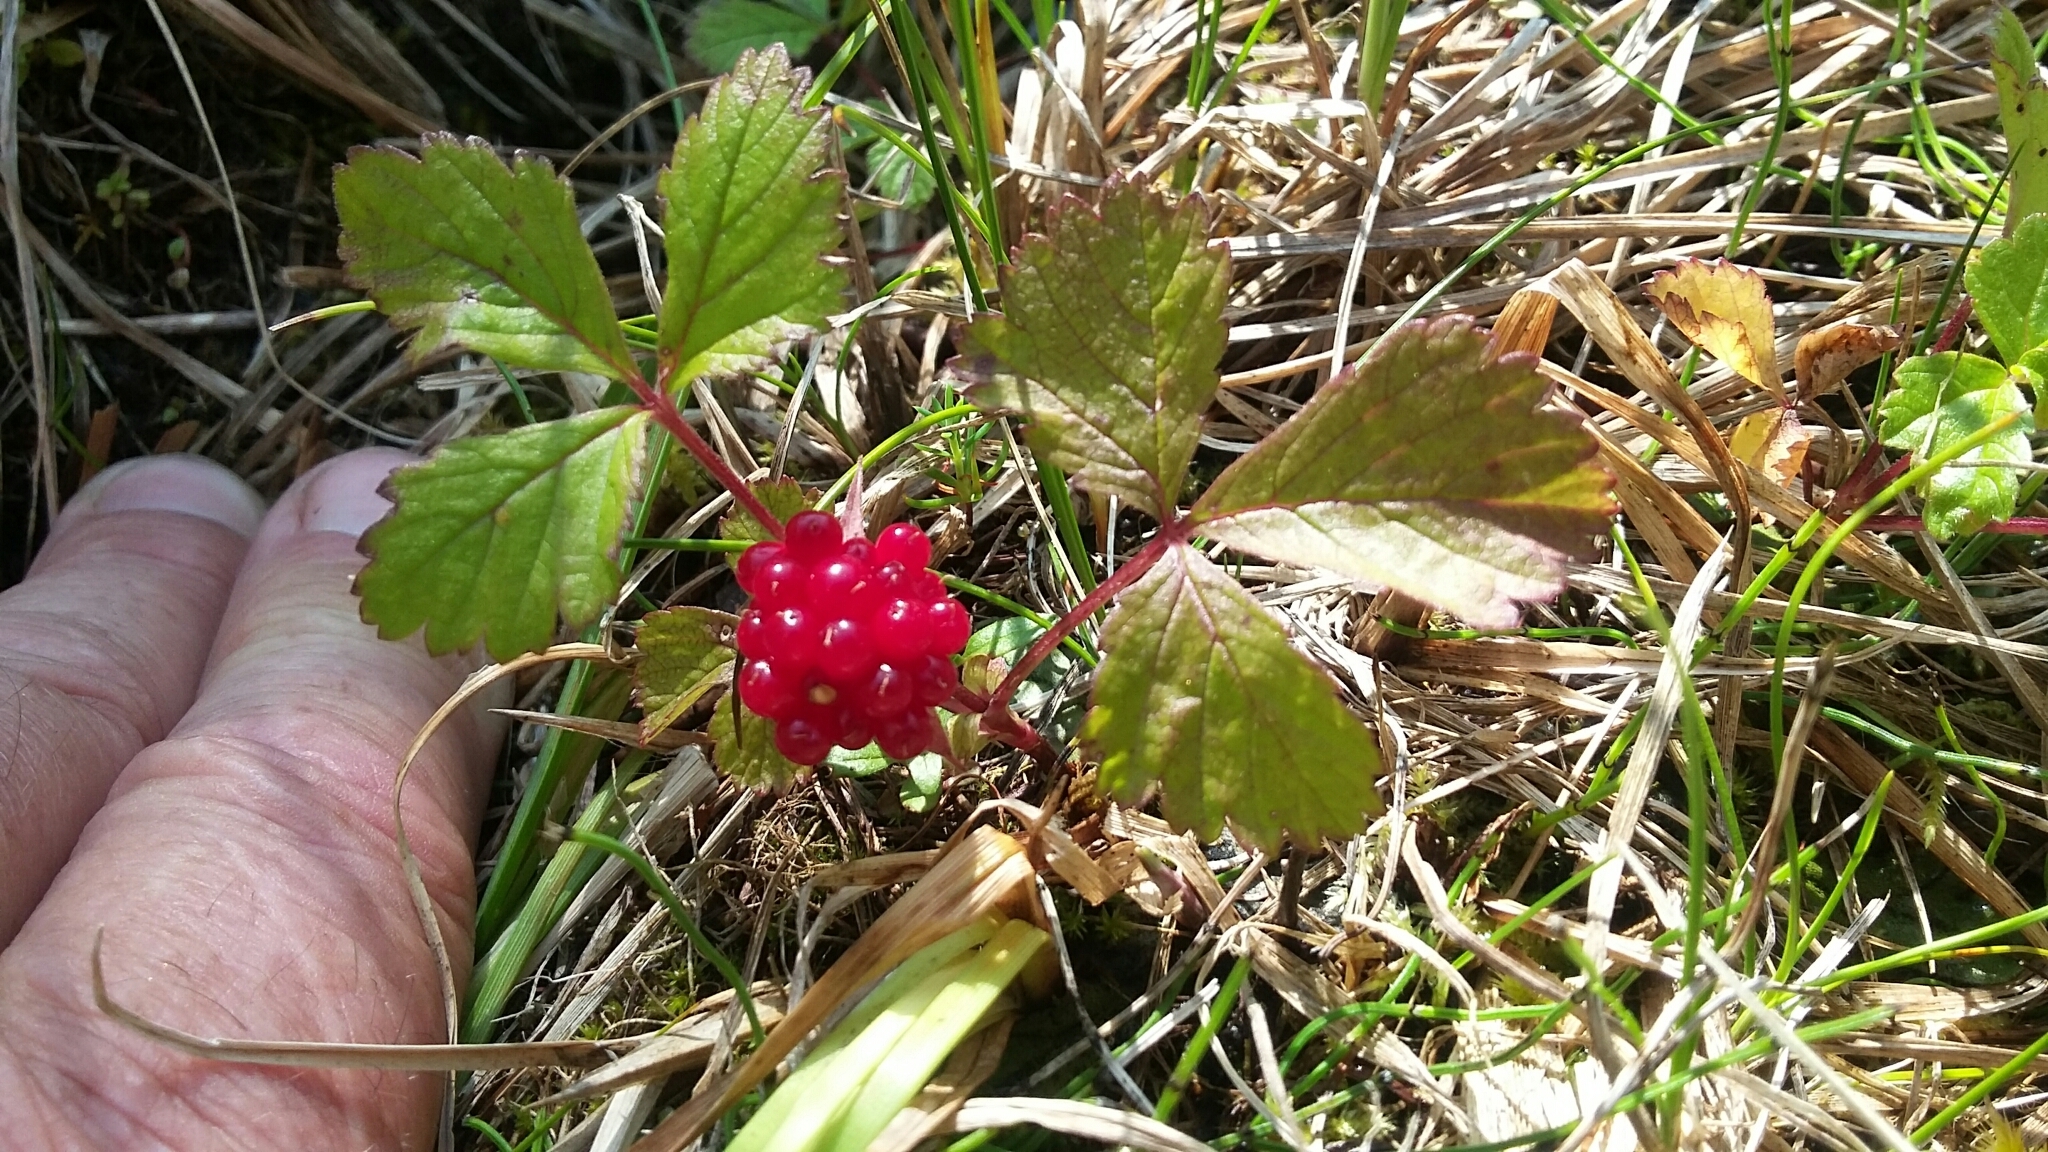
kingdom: Plantae
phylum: Tracheophyta
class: Magnoliopsida
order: Rosales
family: Rosaceae
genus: Rubus
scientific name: Rubus arcticus
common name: Arctic bramble
